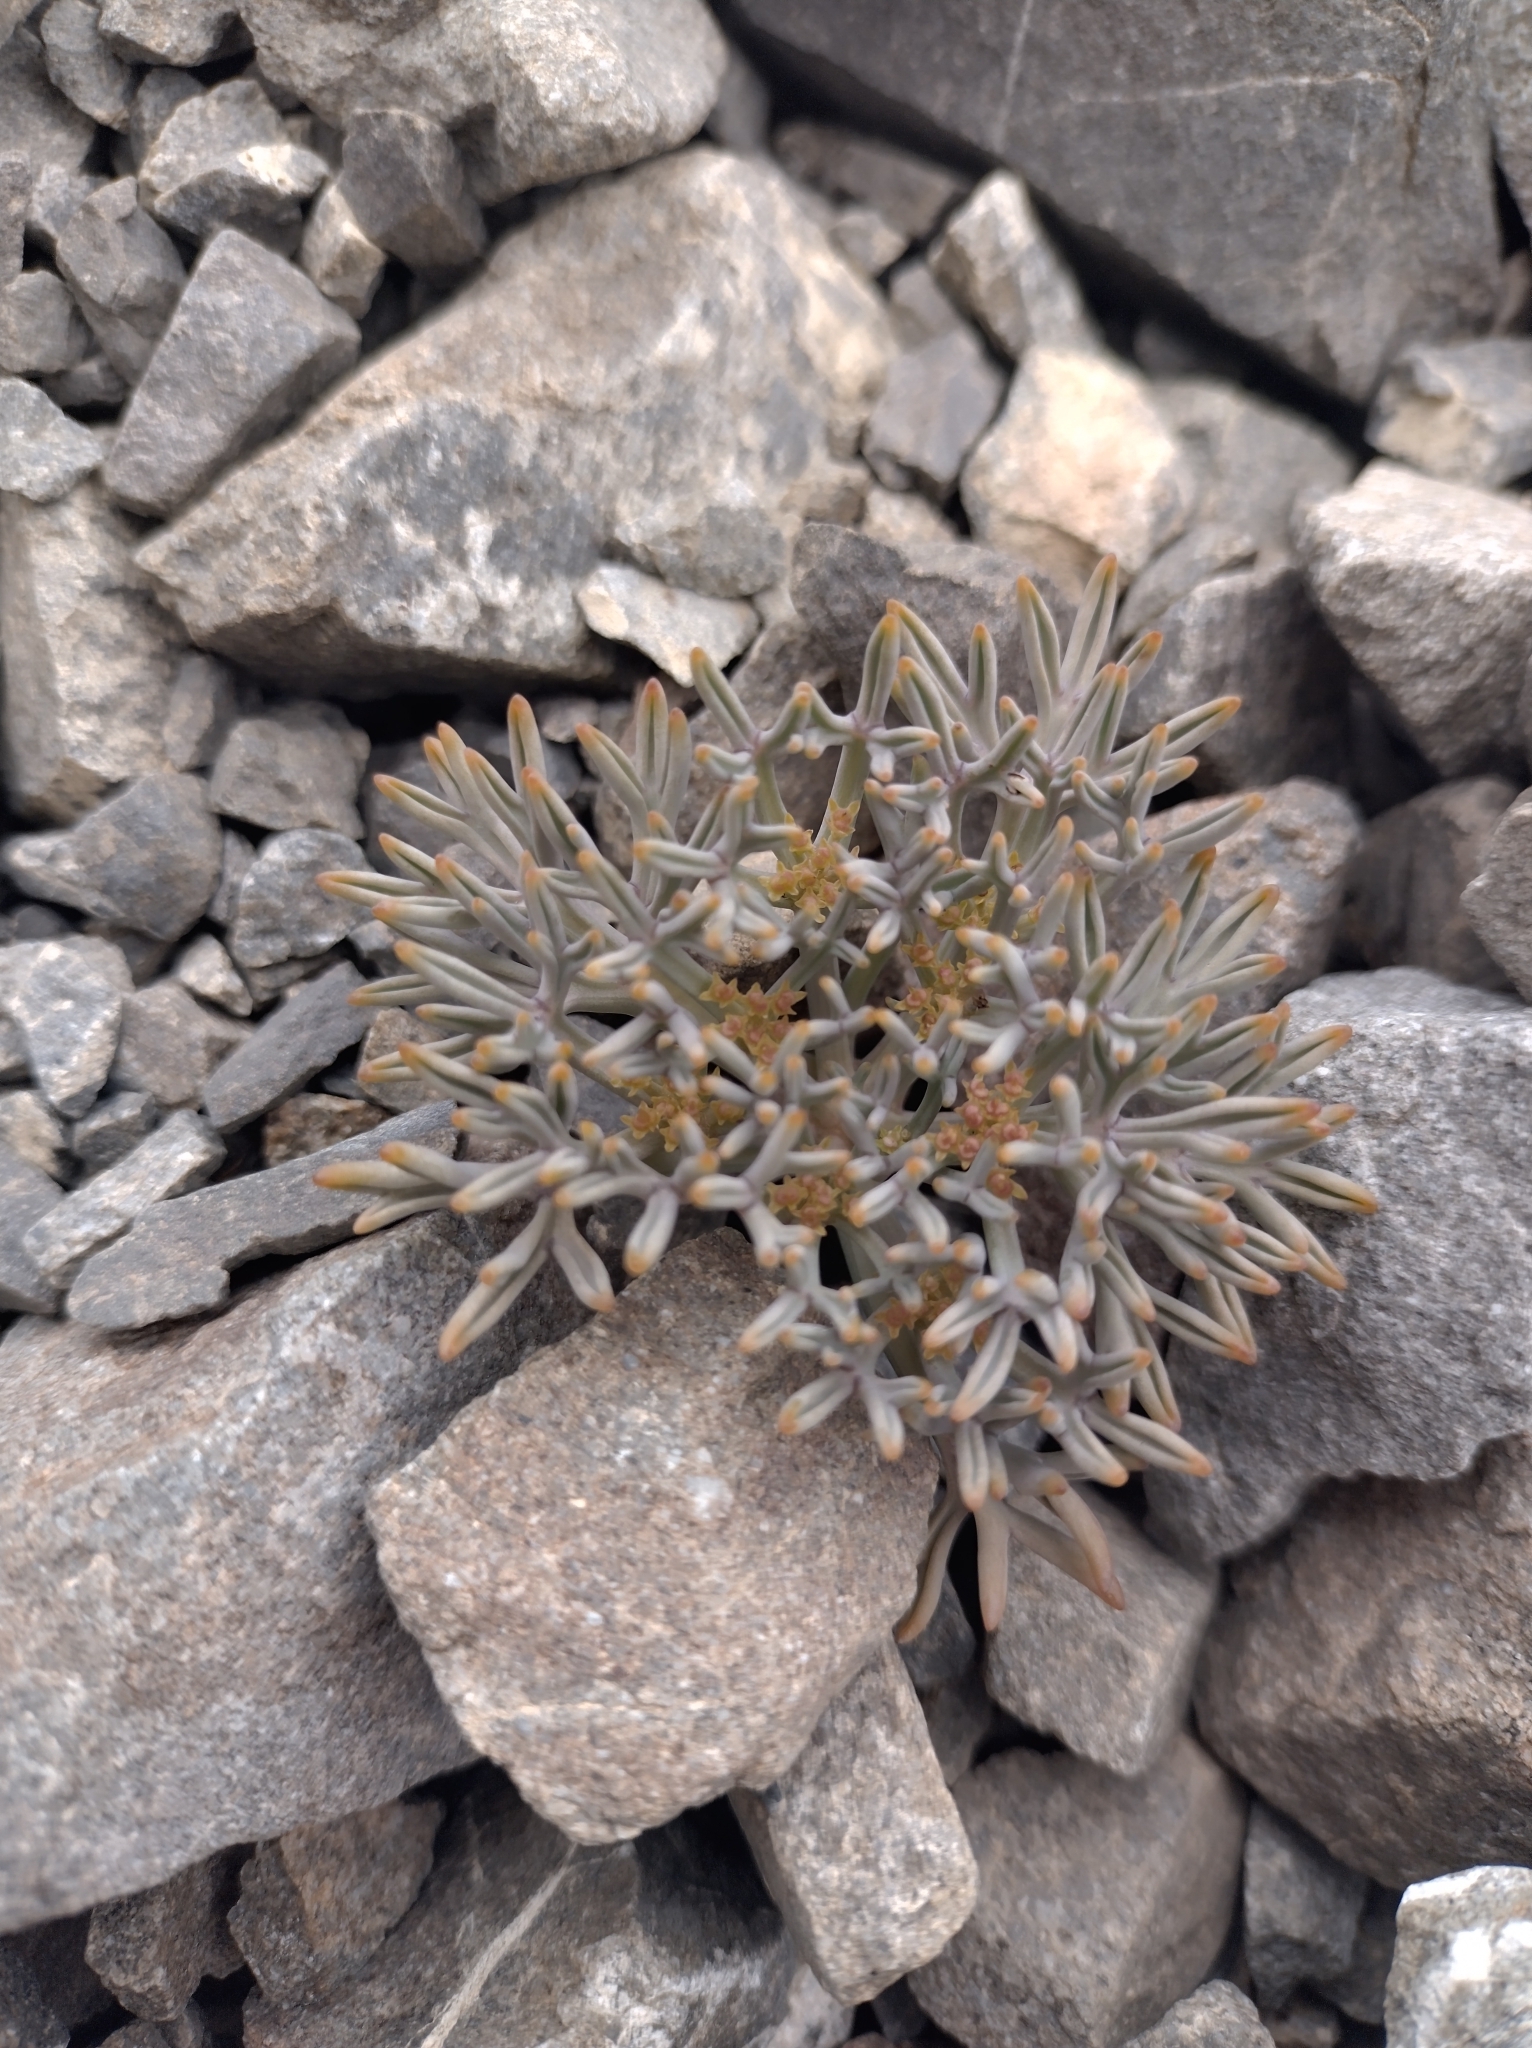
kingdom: Plantae
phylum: Tracheophyta
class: Magnoliopsida
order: Apiales
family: Apiaceae
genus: Lignocarpa
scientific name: Lignocarpa carnosula
